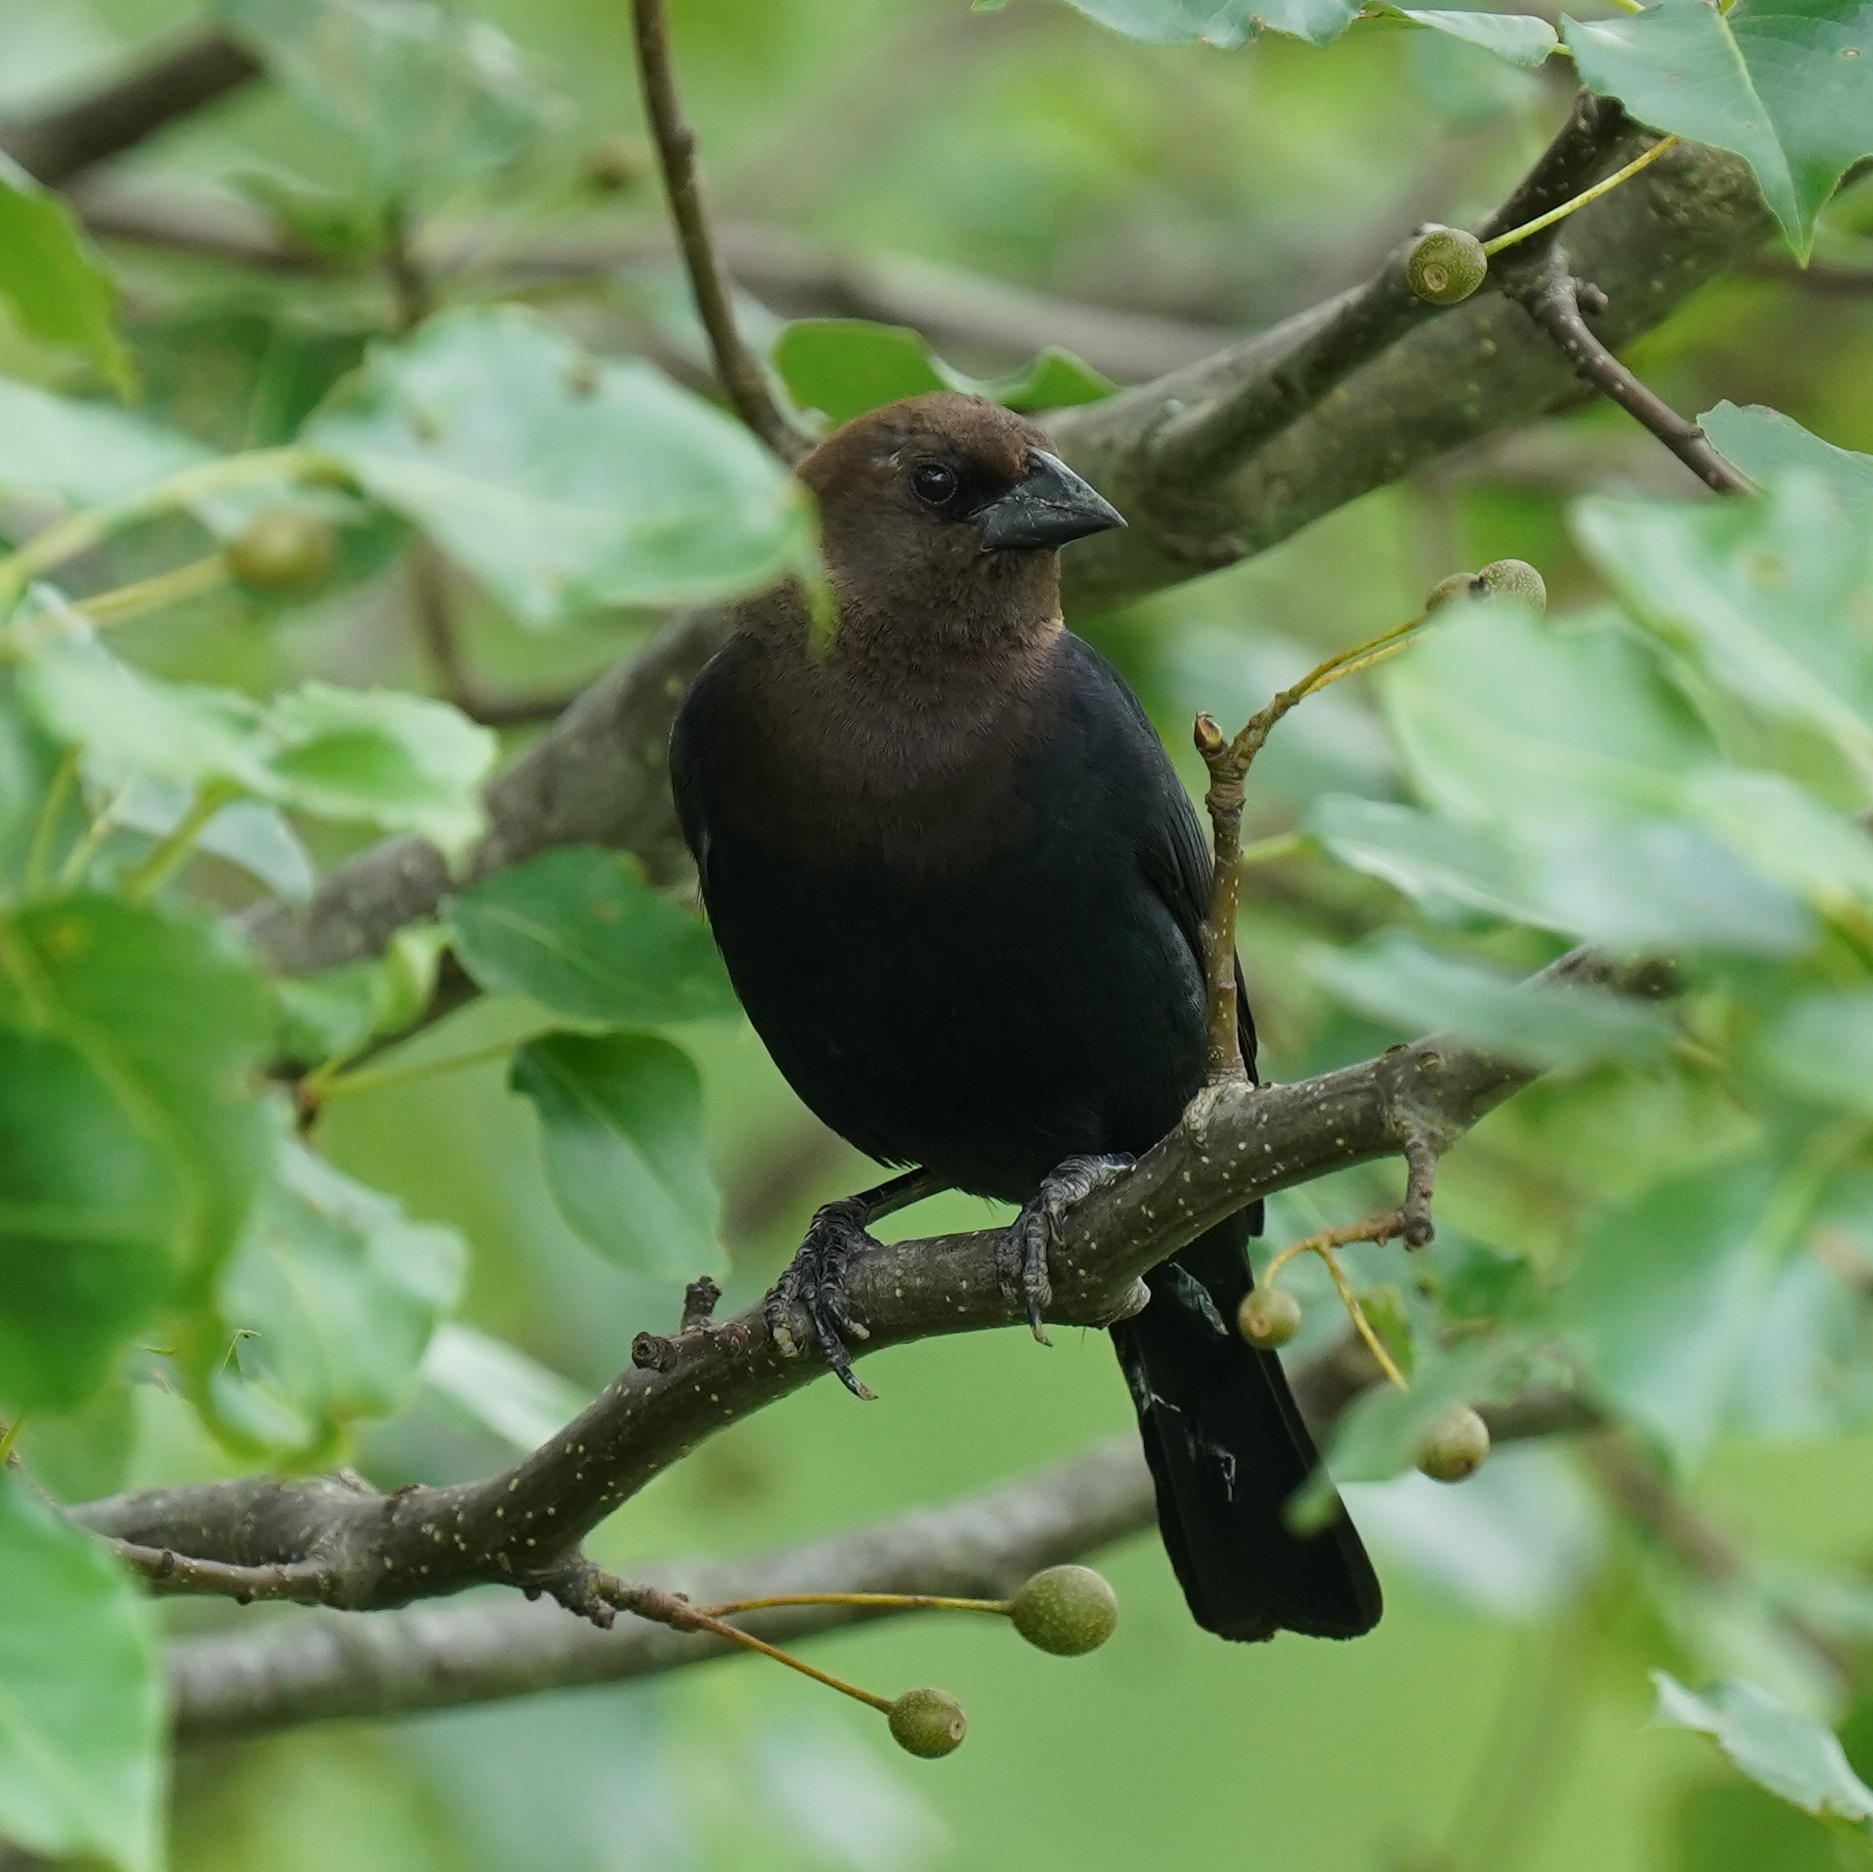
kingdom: Animalia
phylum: Chordata
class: Aves
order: Passeriformes
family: Icteridae
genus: Molothrus
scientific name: Molothrus ater
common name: Brown-headed cowbird
